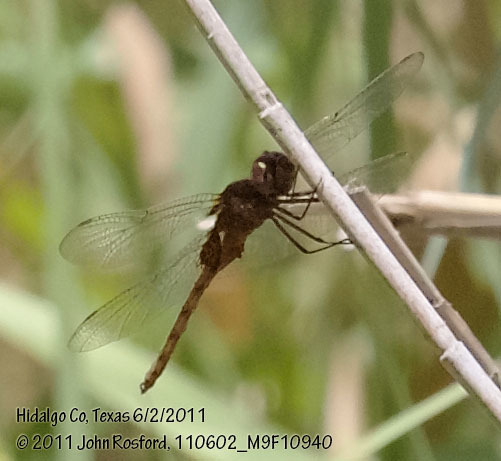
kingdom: Animalia
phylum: Arthropoda
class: Insecta
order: Odonata
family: Libellulidae
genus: Tauriphila
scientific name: Tauriphila argo
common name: Arch-tipped glider
